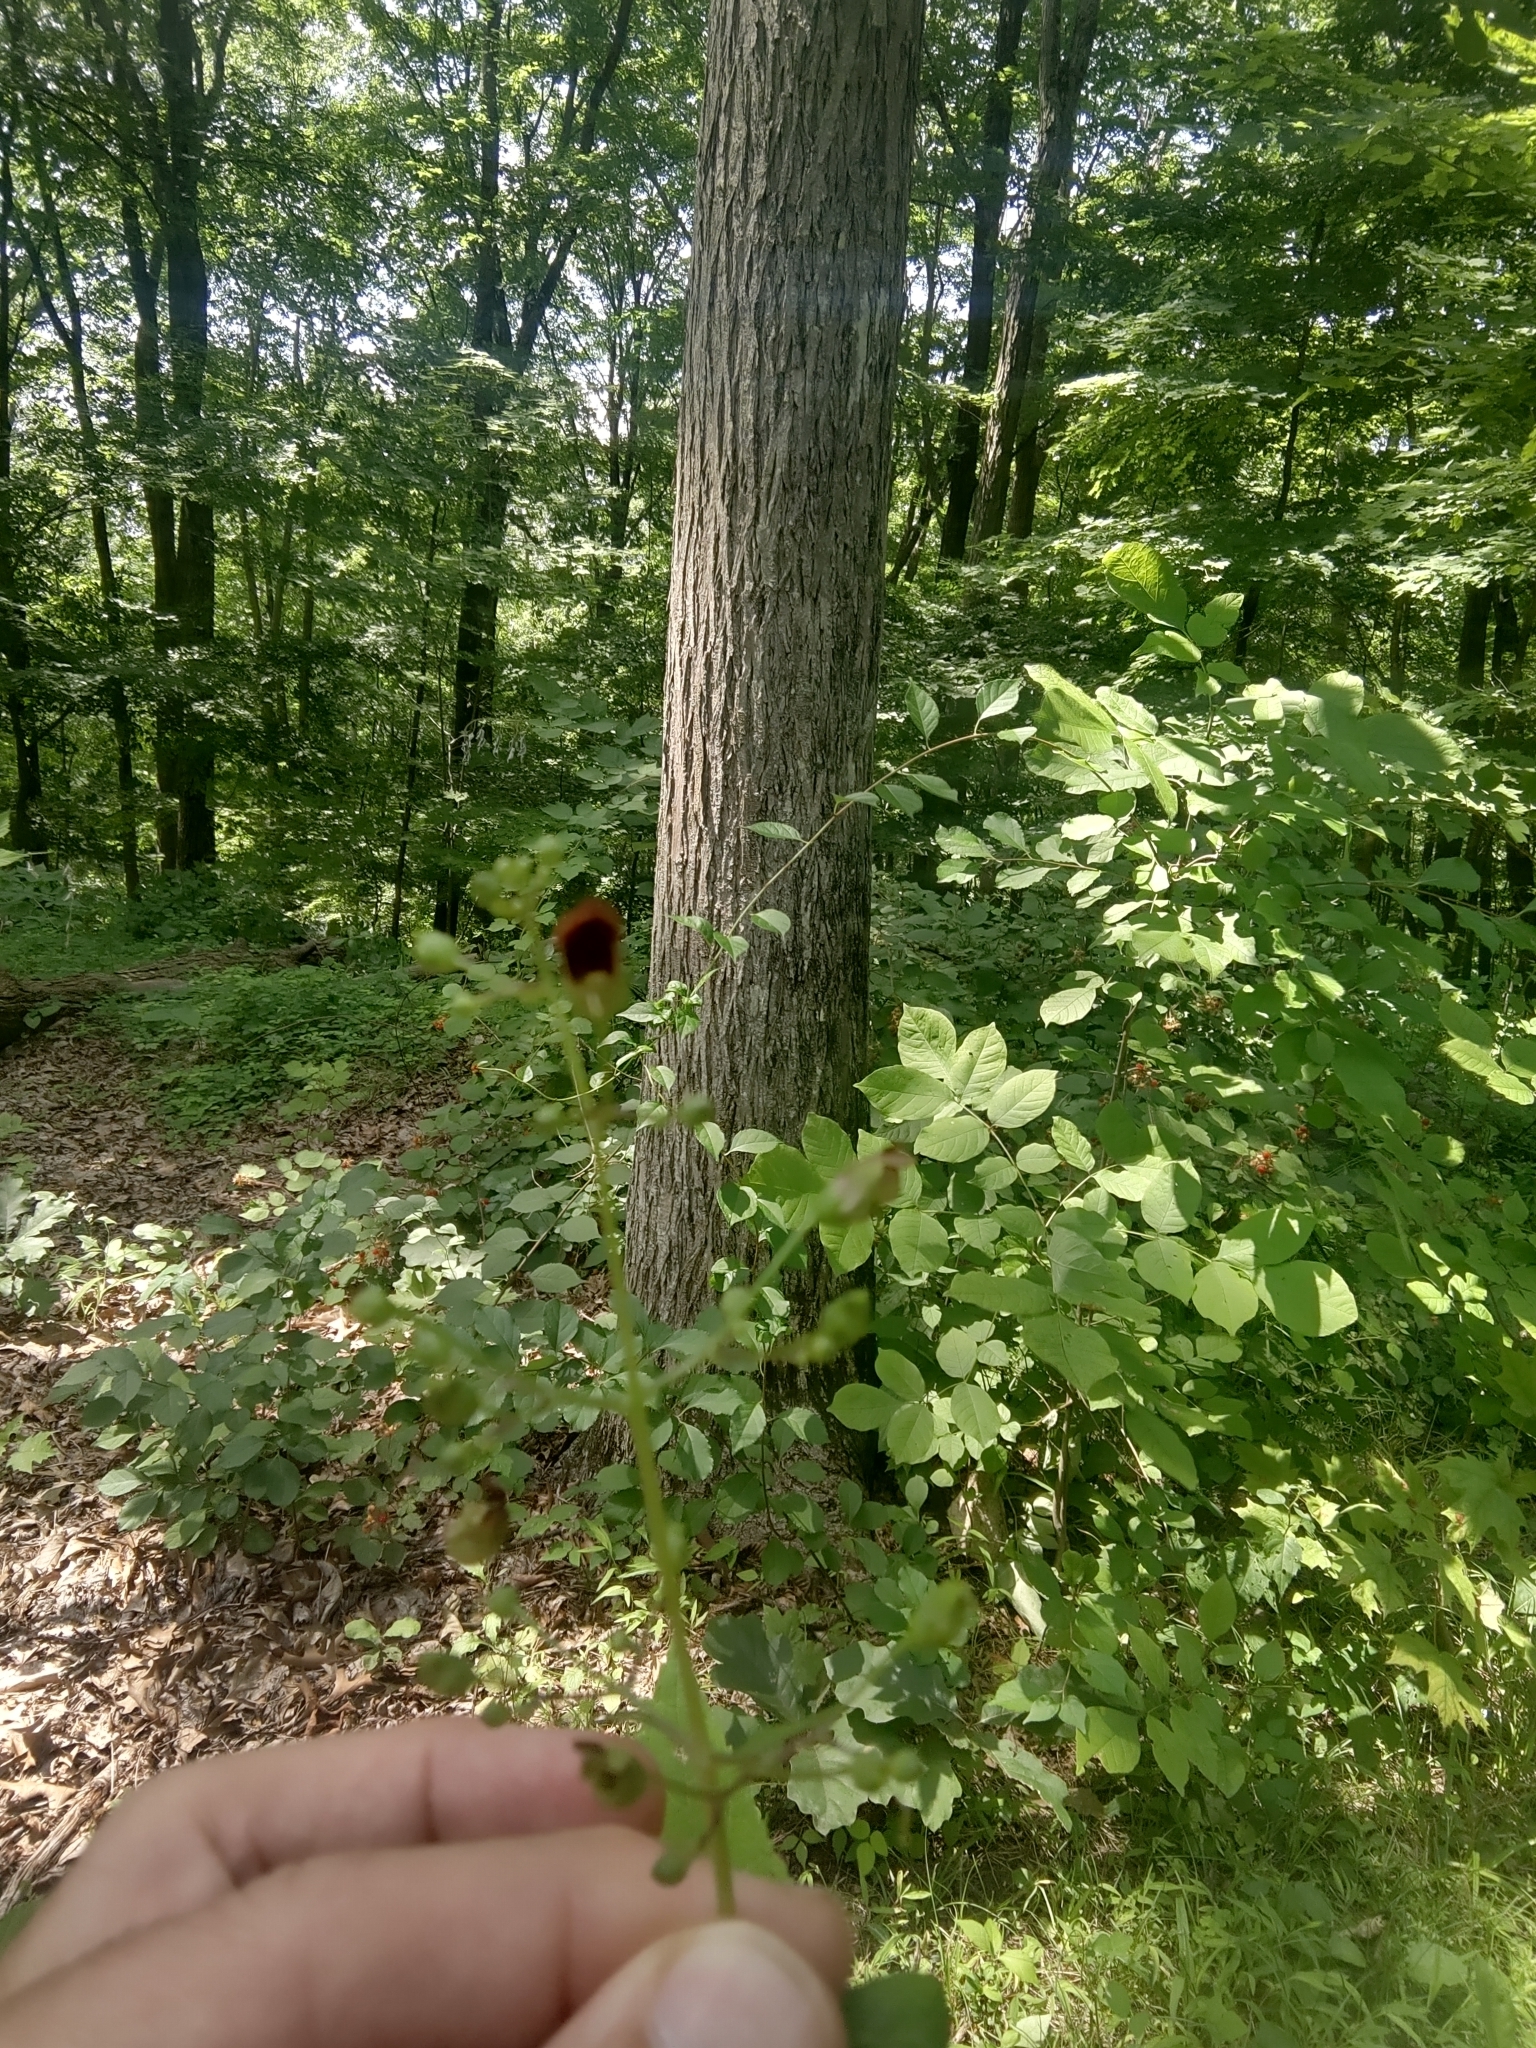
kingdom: Plantae
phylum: Tracheophyta
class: Magnoliopsida
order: Lamiales
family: Scrophulariaceae
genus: Scrophularia
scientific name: Scrophularia marilandica
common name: Eastern figwort
